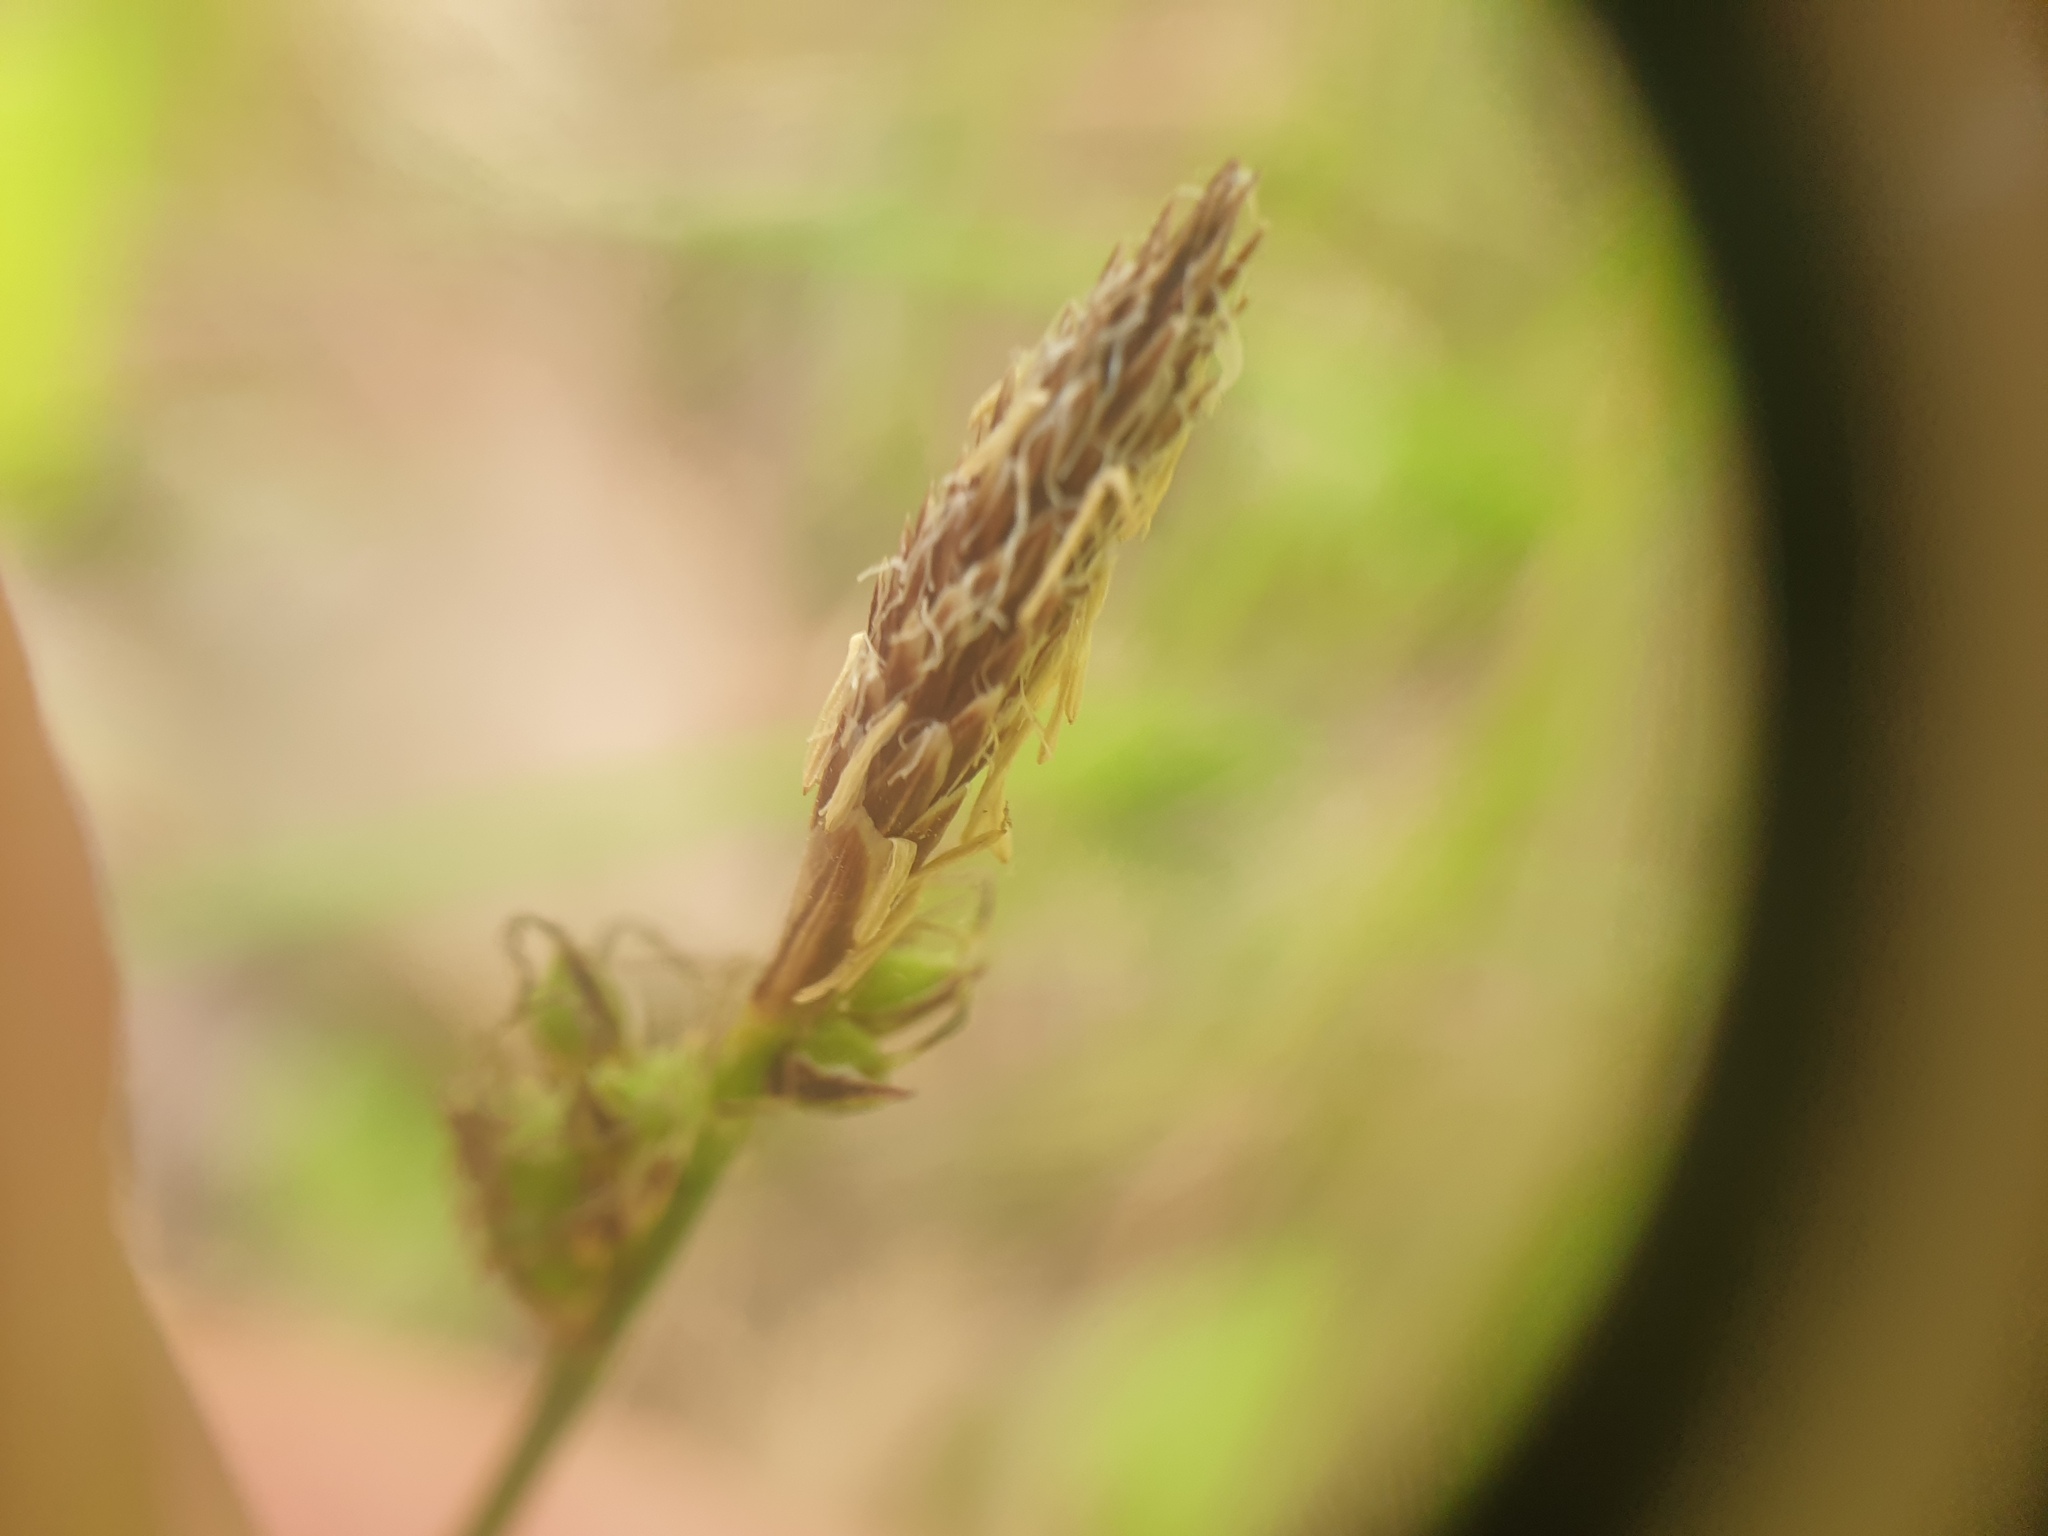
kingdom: Plantae
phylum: Tracheophyta
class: Liliopsida
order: Poales
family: Cyperaceae
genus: Carex
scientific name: Carex pensylvanica
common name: Common oak sedge
